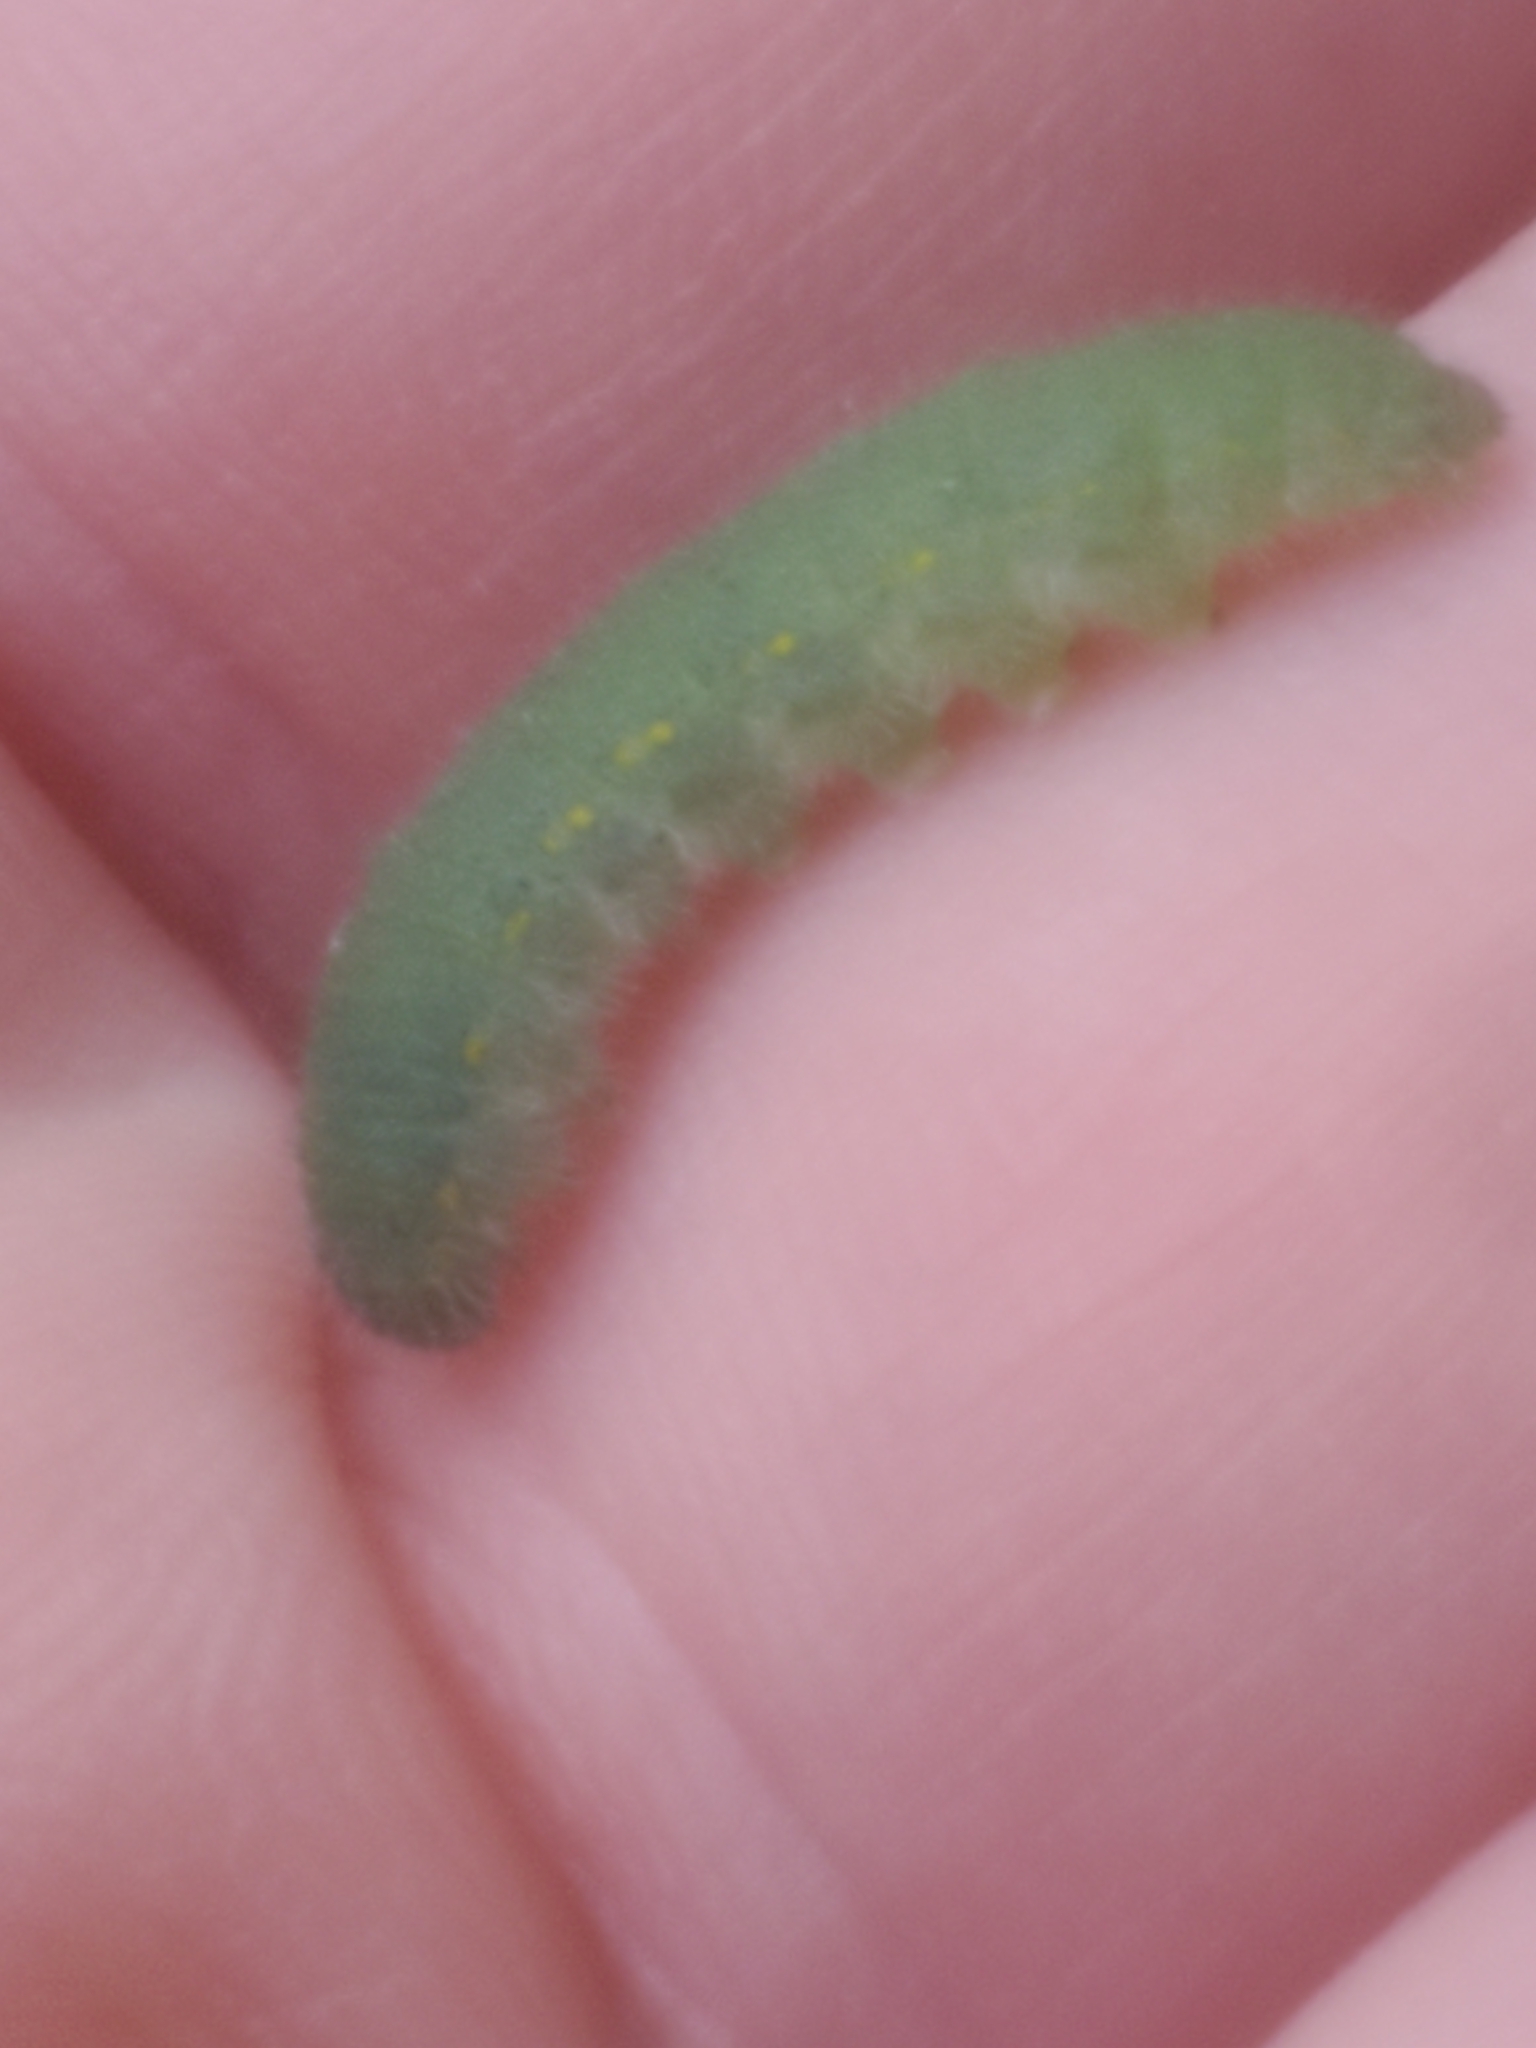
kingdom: Animalia
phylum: Arthropoda
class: Insecta
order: Lepidoptera
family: Pieridae
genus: Pieris
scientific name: Pieris rapae
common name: Small white
